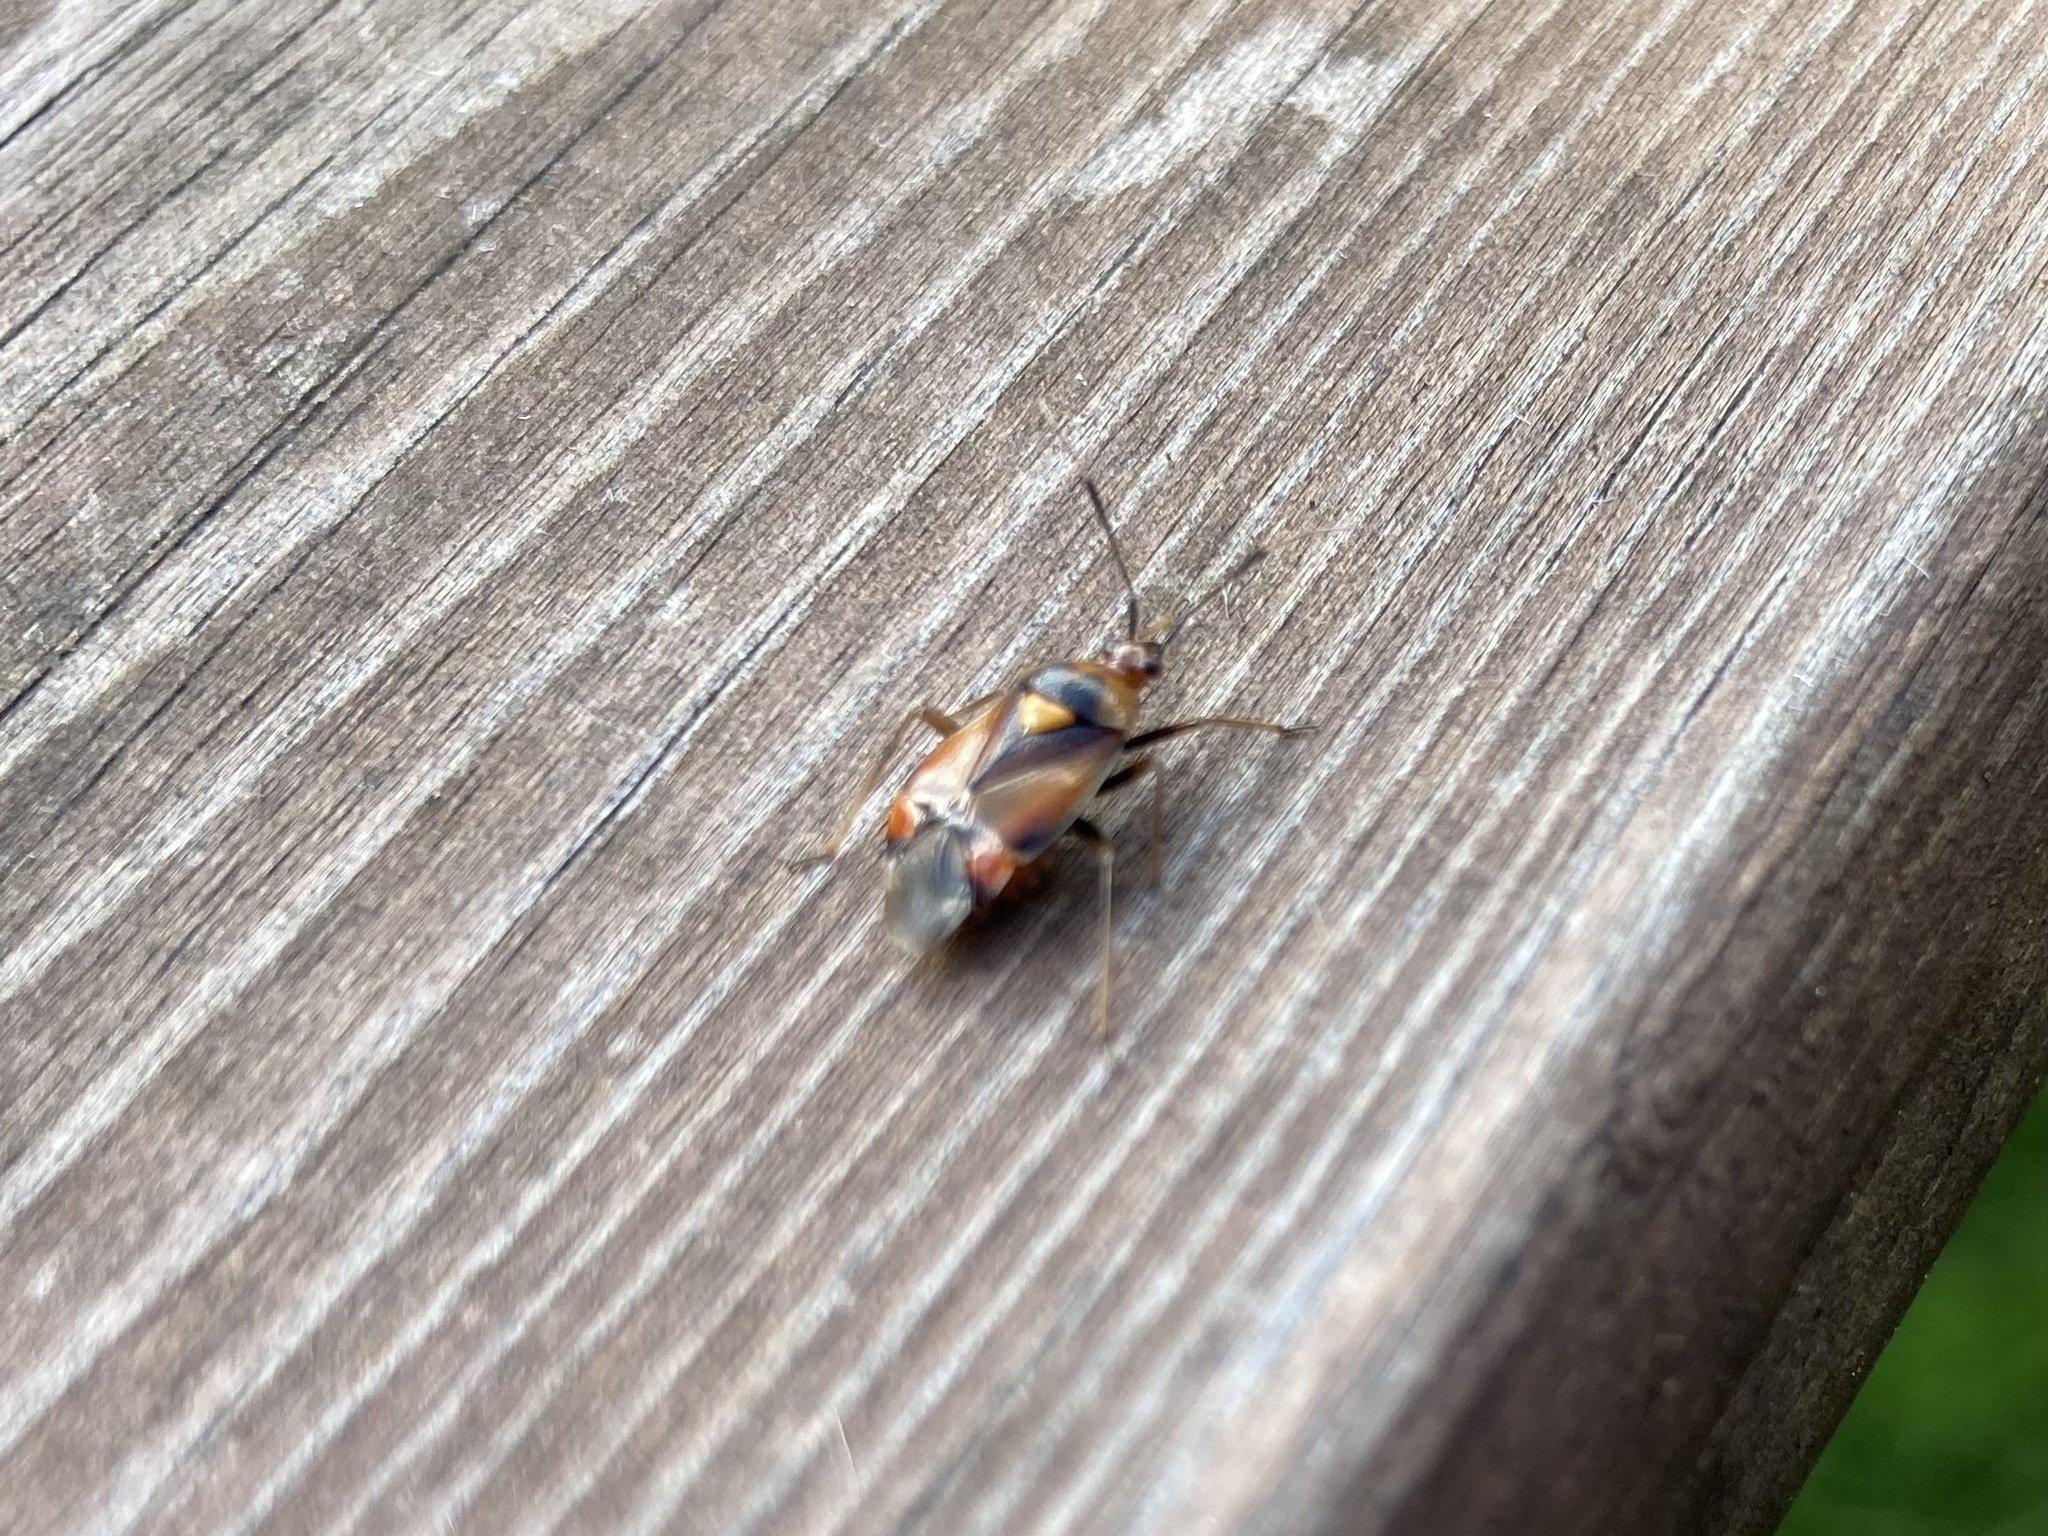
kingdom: Animalia
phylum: Arthropoda
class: Insecta
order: Hemiptera
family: Miridae
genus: Deraeocoris
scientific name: Deraeocoris ruber
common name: Plant bug
